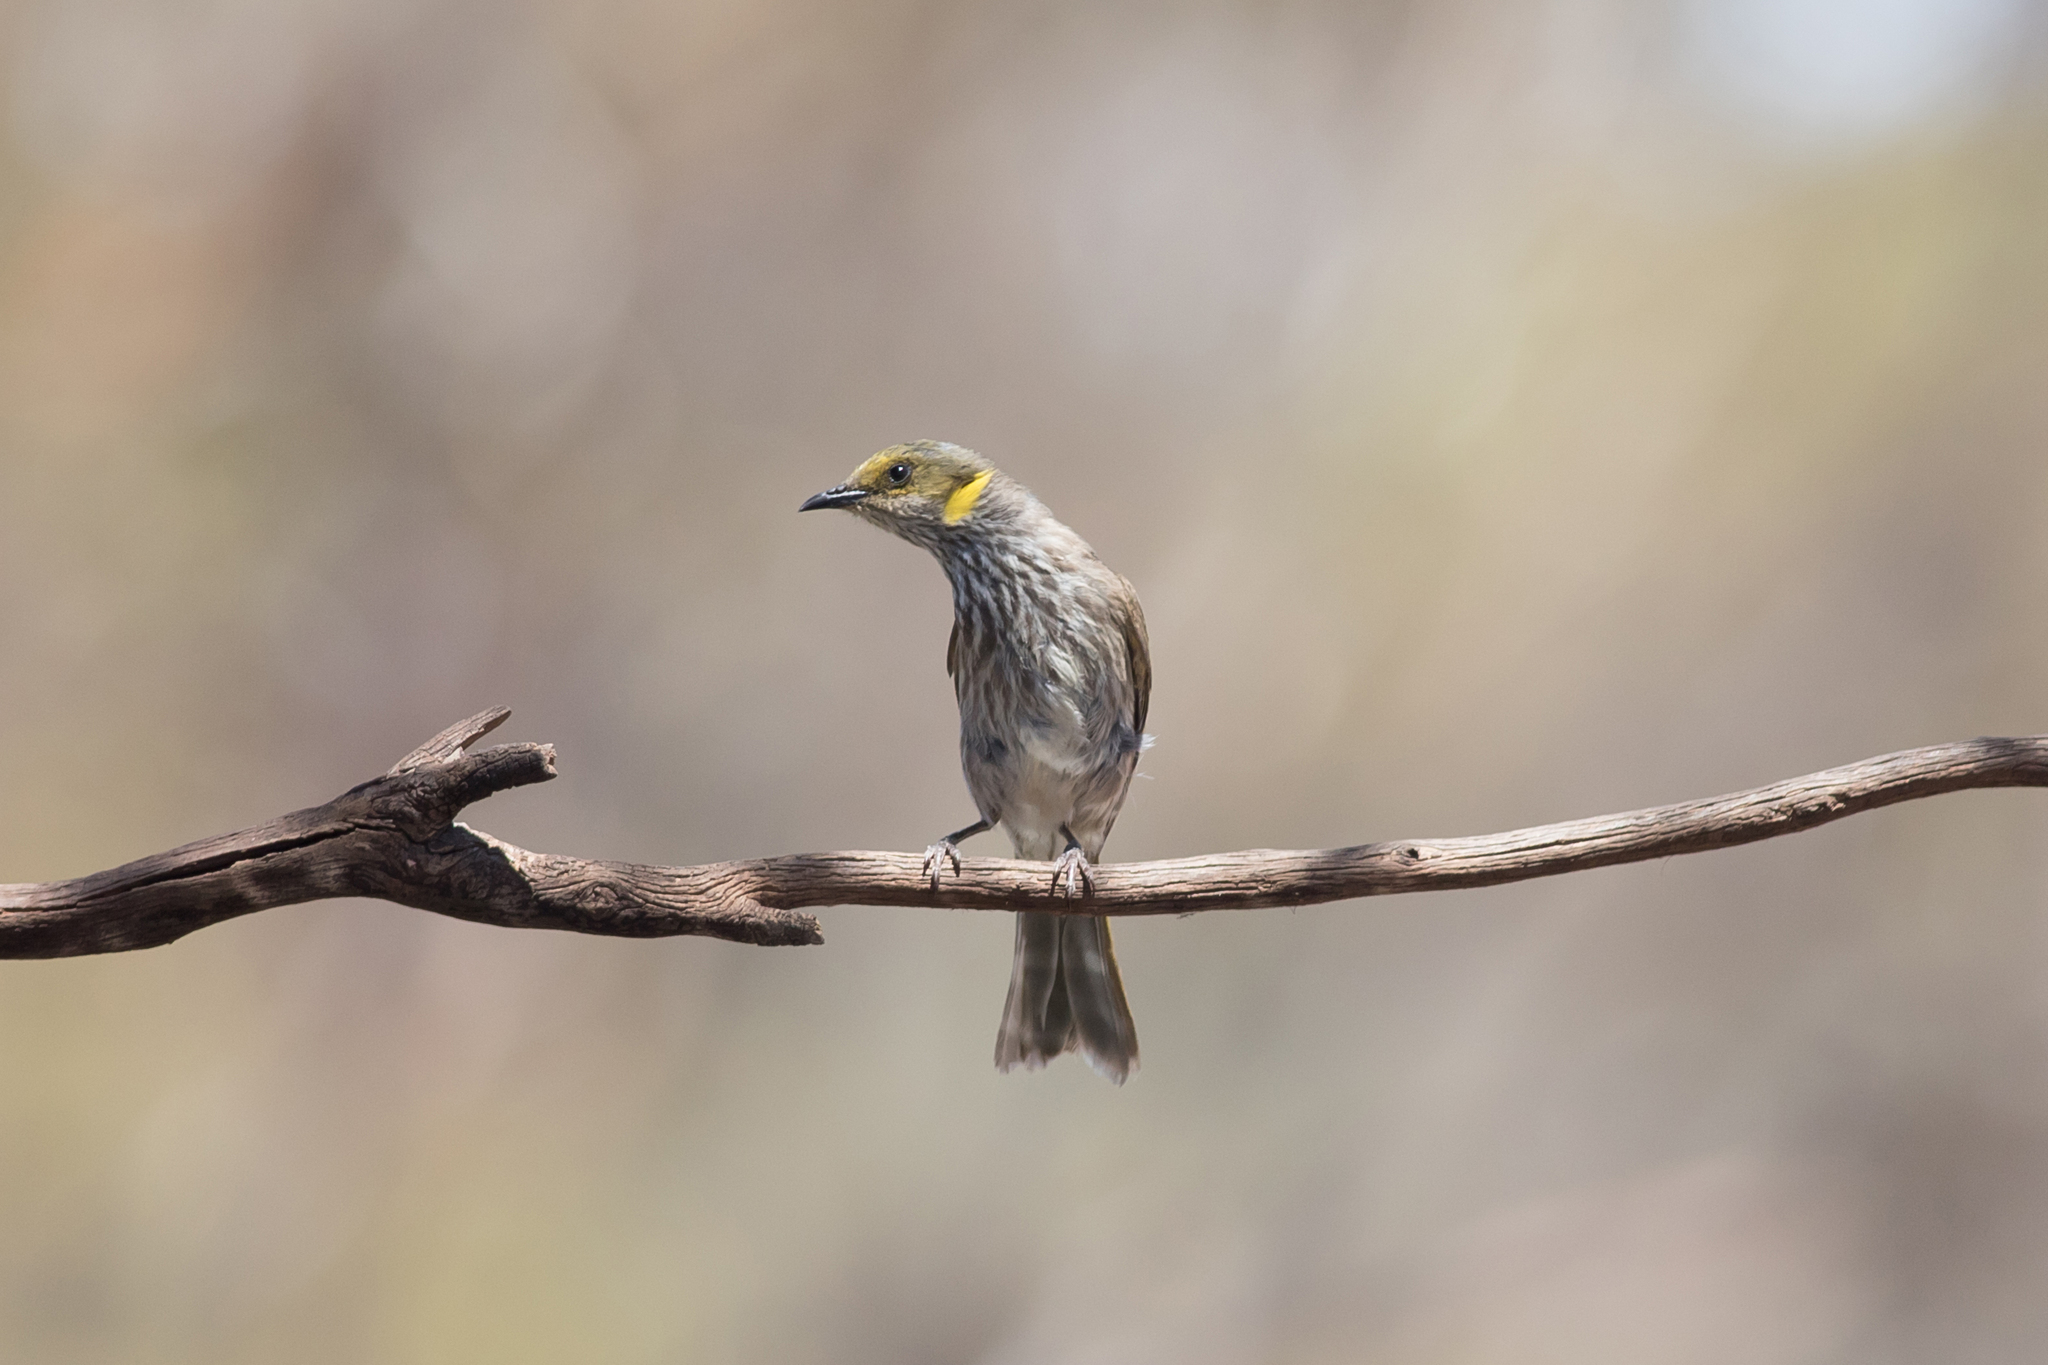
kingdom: Animalia
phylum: Chordata
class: Aves
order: Passeriformes
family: Meliphagidae
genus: Ptilotula
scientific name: Ptilotula ornata
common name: Yellow-plumed honeyeater
